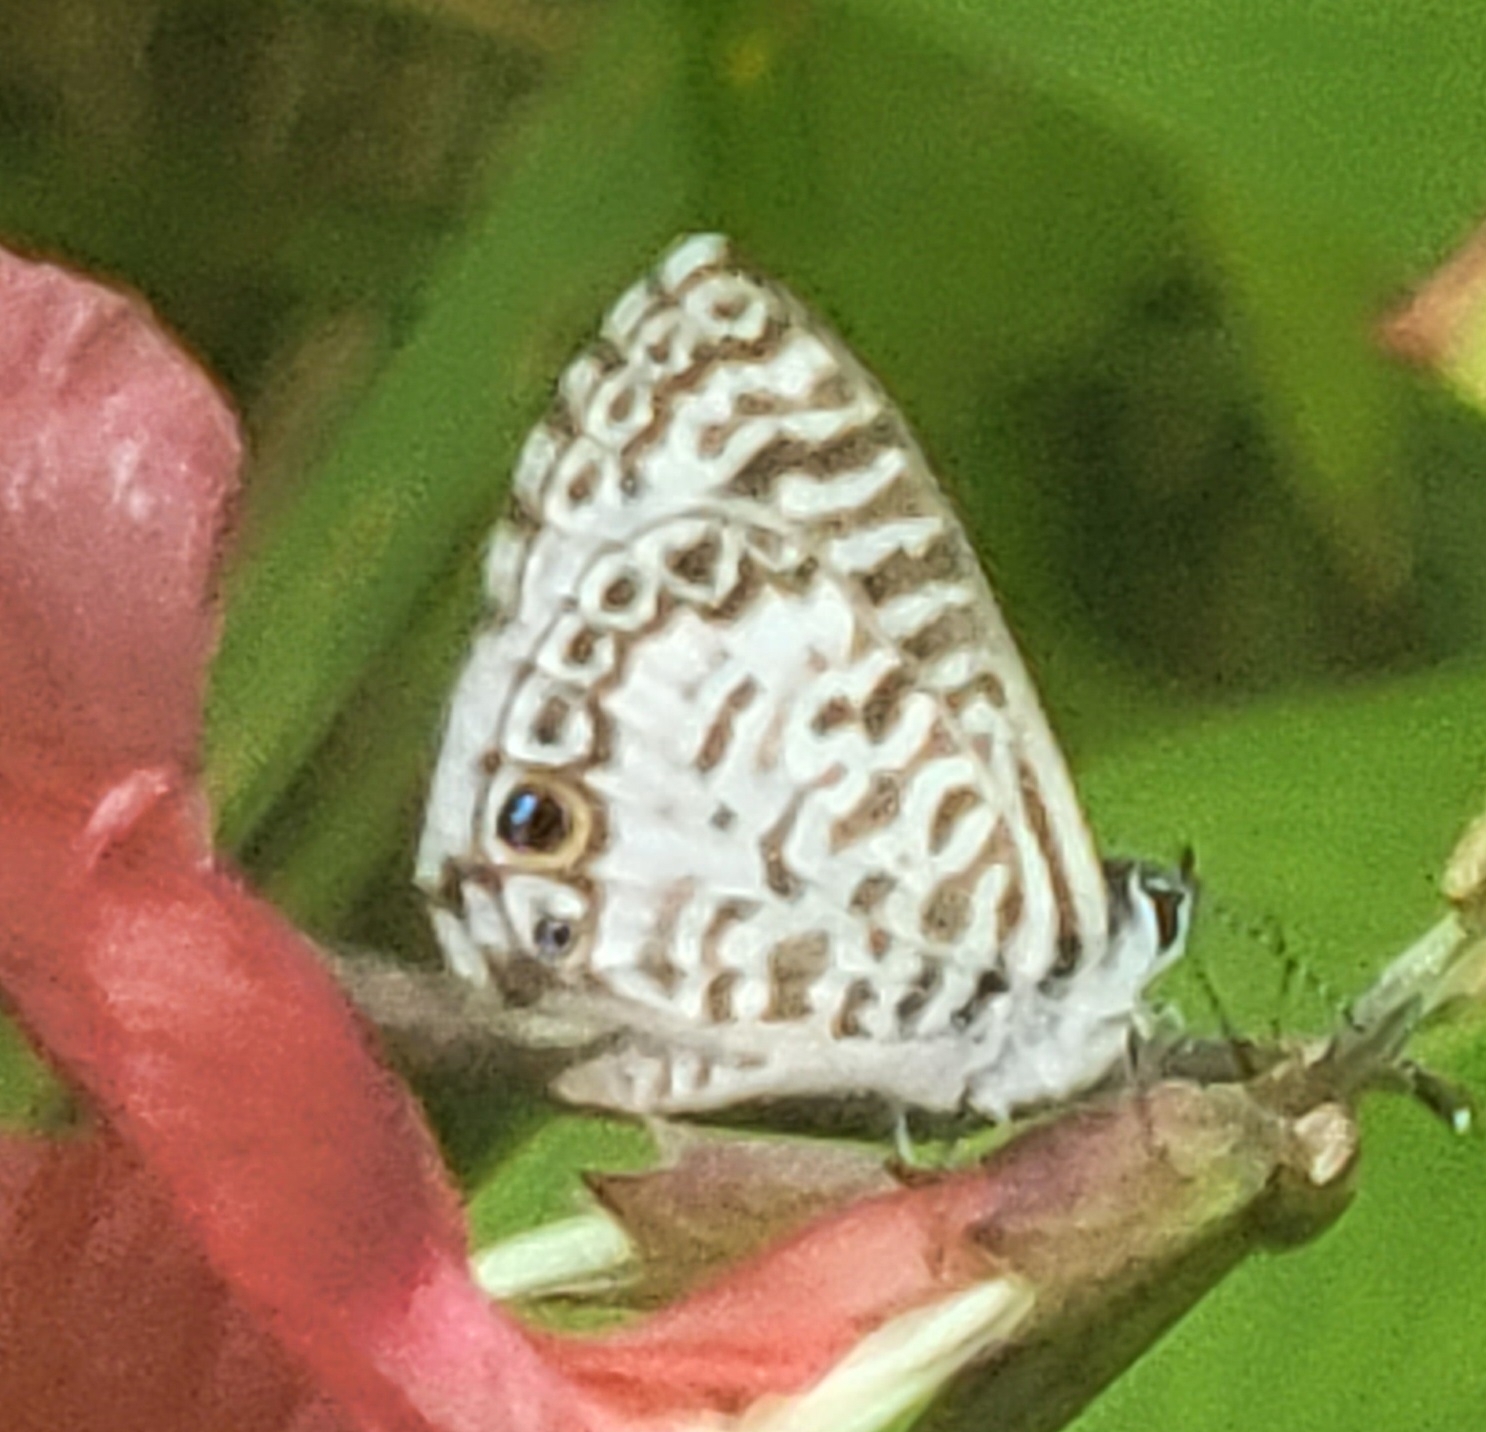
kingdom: Animalia
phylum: Arthropoda
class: Insecta
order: Lepidoptera
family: Lycaenidae
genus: Leptotes
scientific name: Leptotes cassius
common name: Cassius blue
